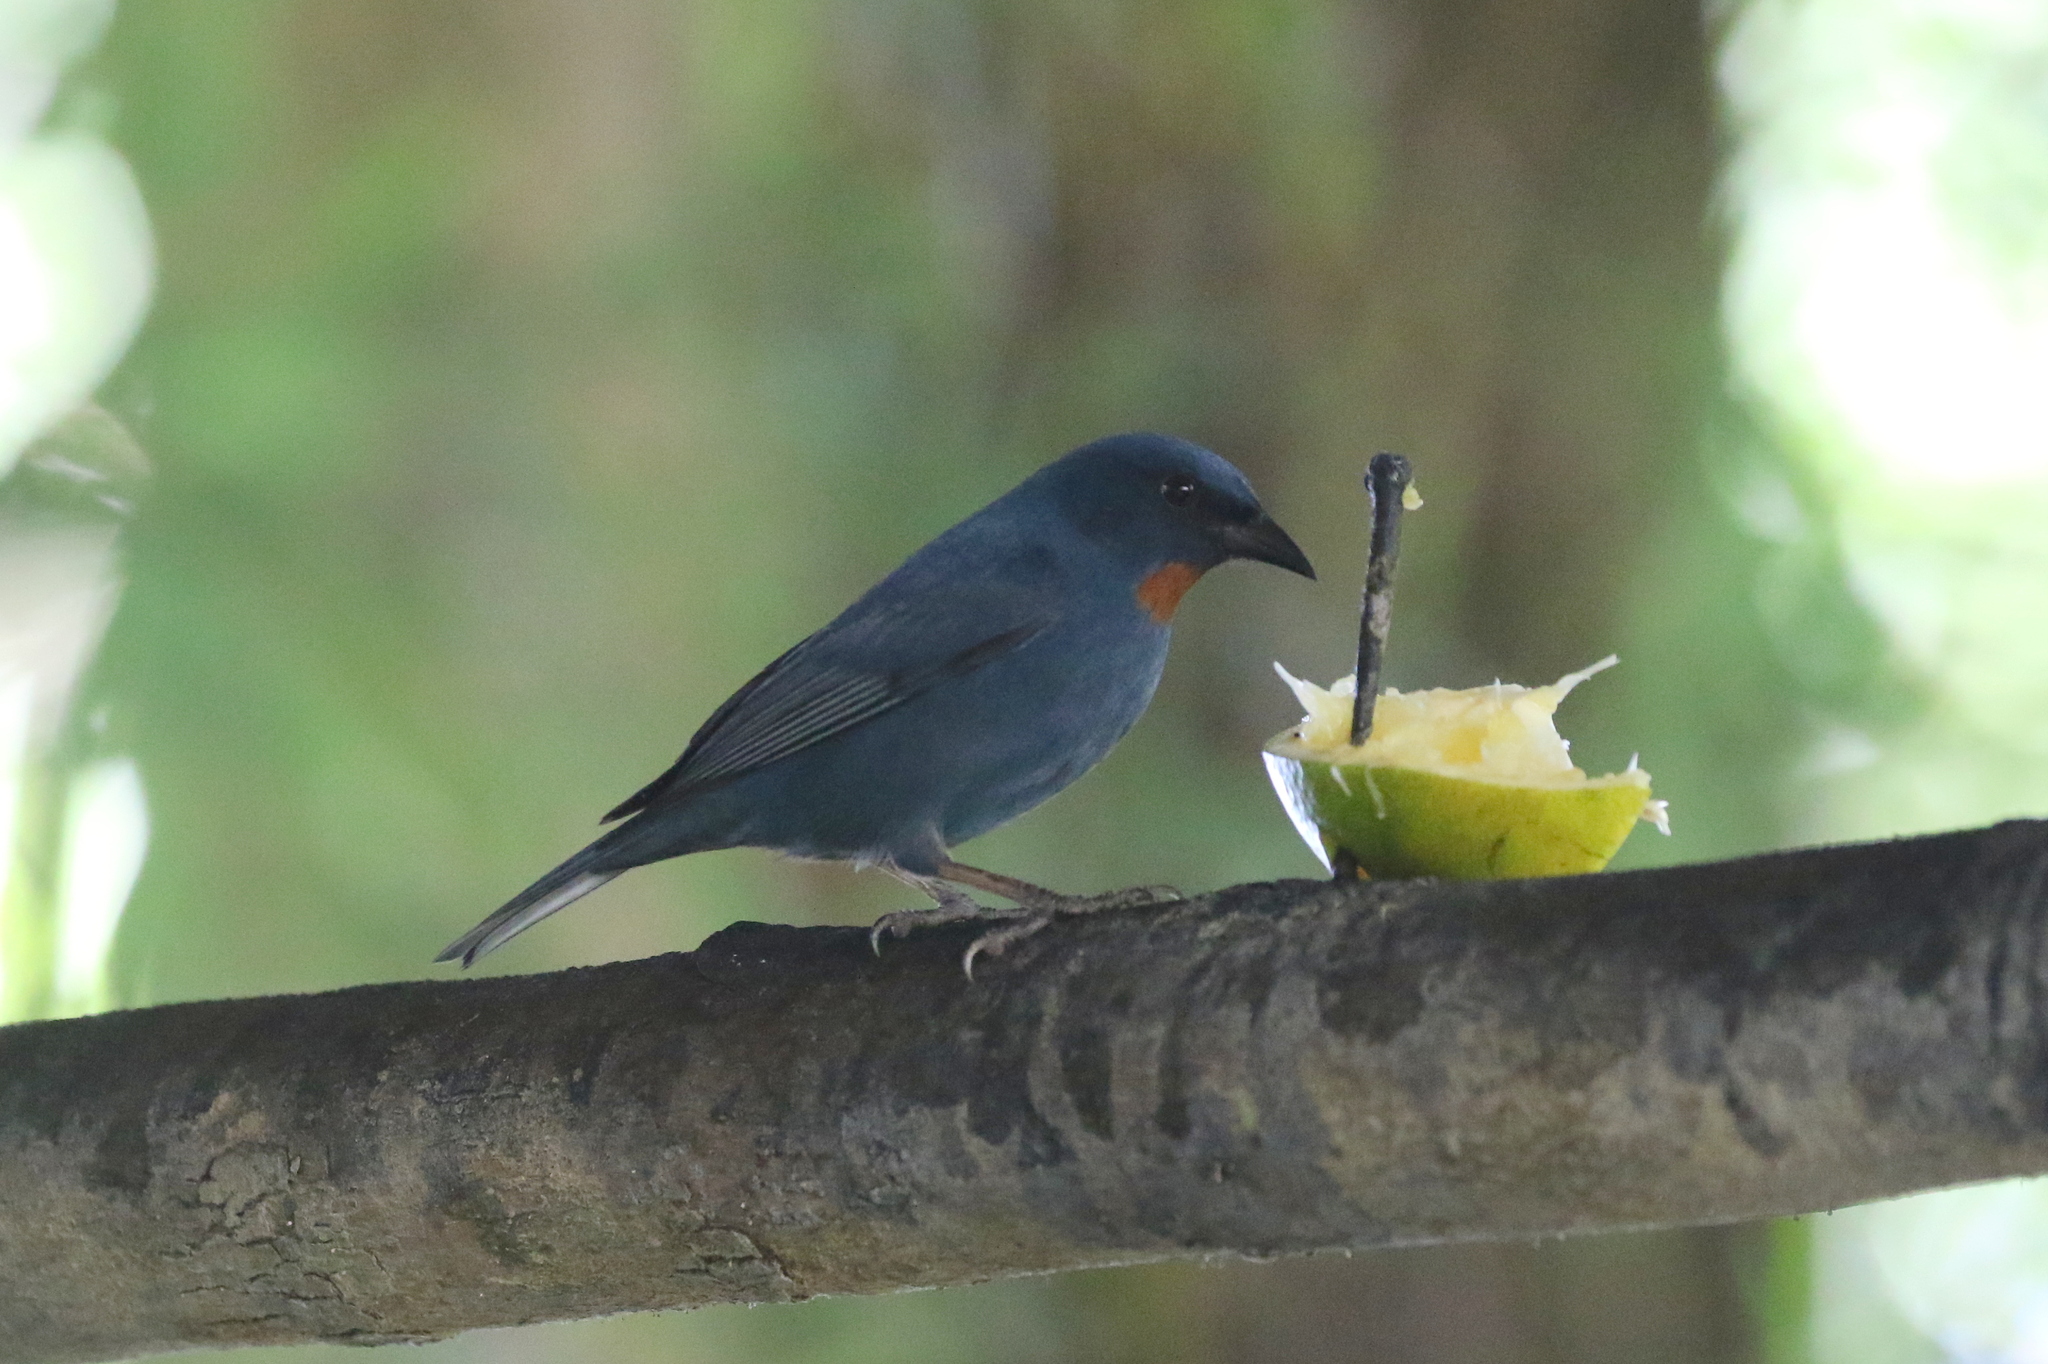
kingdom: Animalia
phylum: Chordata
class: Aves
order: Passeriformes
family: Thraupidae
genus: Euneornis
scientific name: Euneornis campestris
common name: Orangequit
